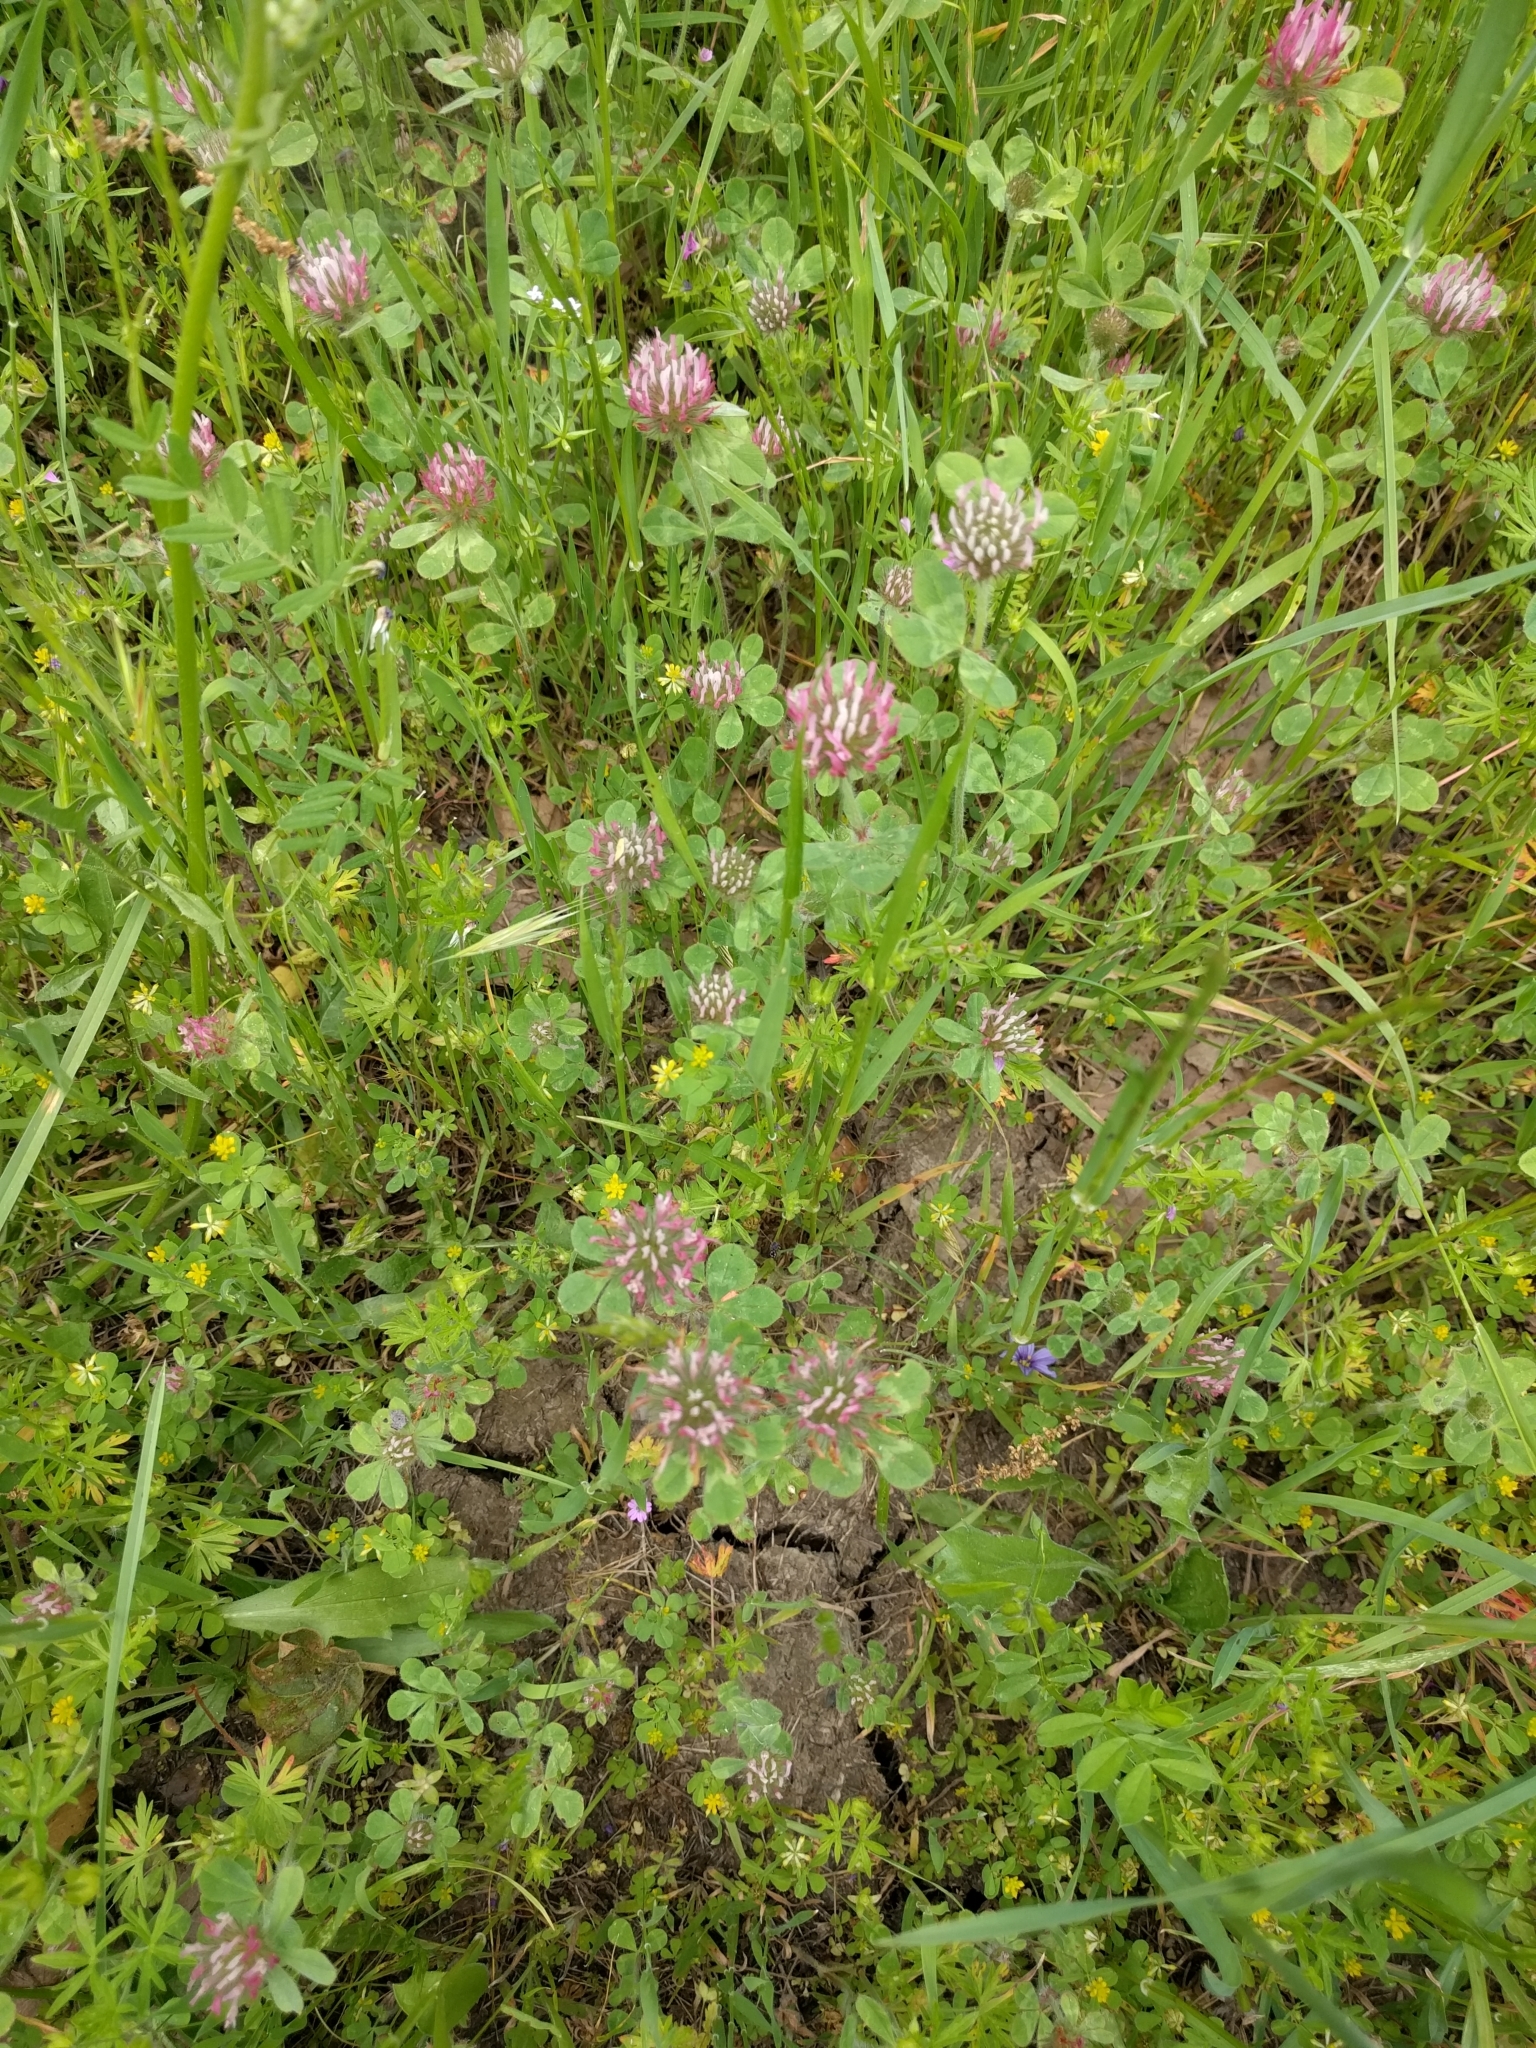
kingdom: Plantae
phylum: Tracheophyta
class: Magnoliopsida
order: Fabales
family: Fabaceae
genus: Trifolium
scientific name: Trifolium hirtum
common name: Rose clover
